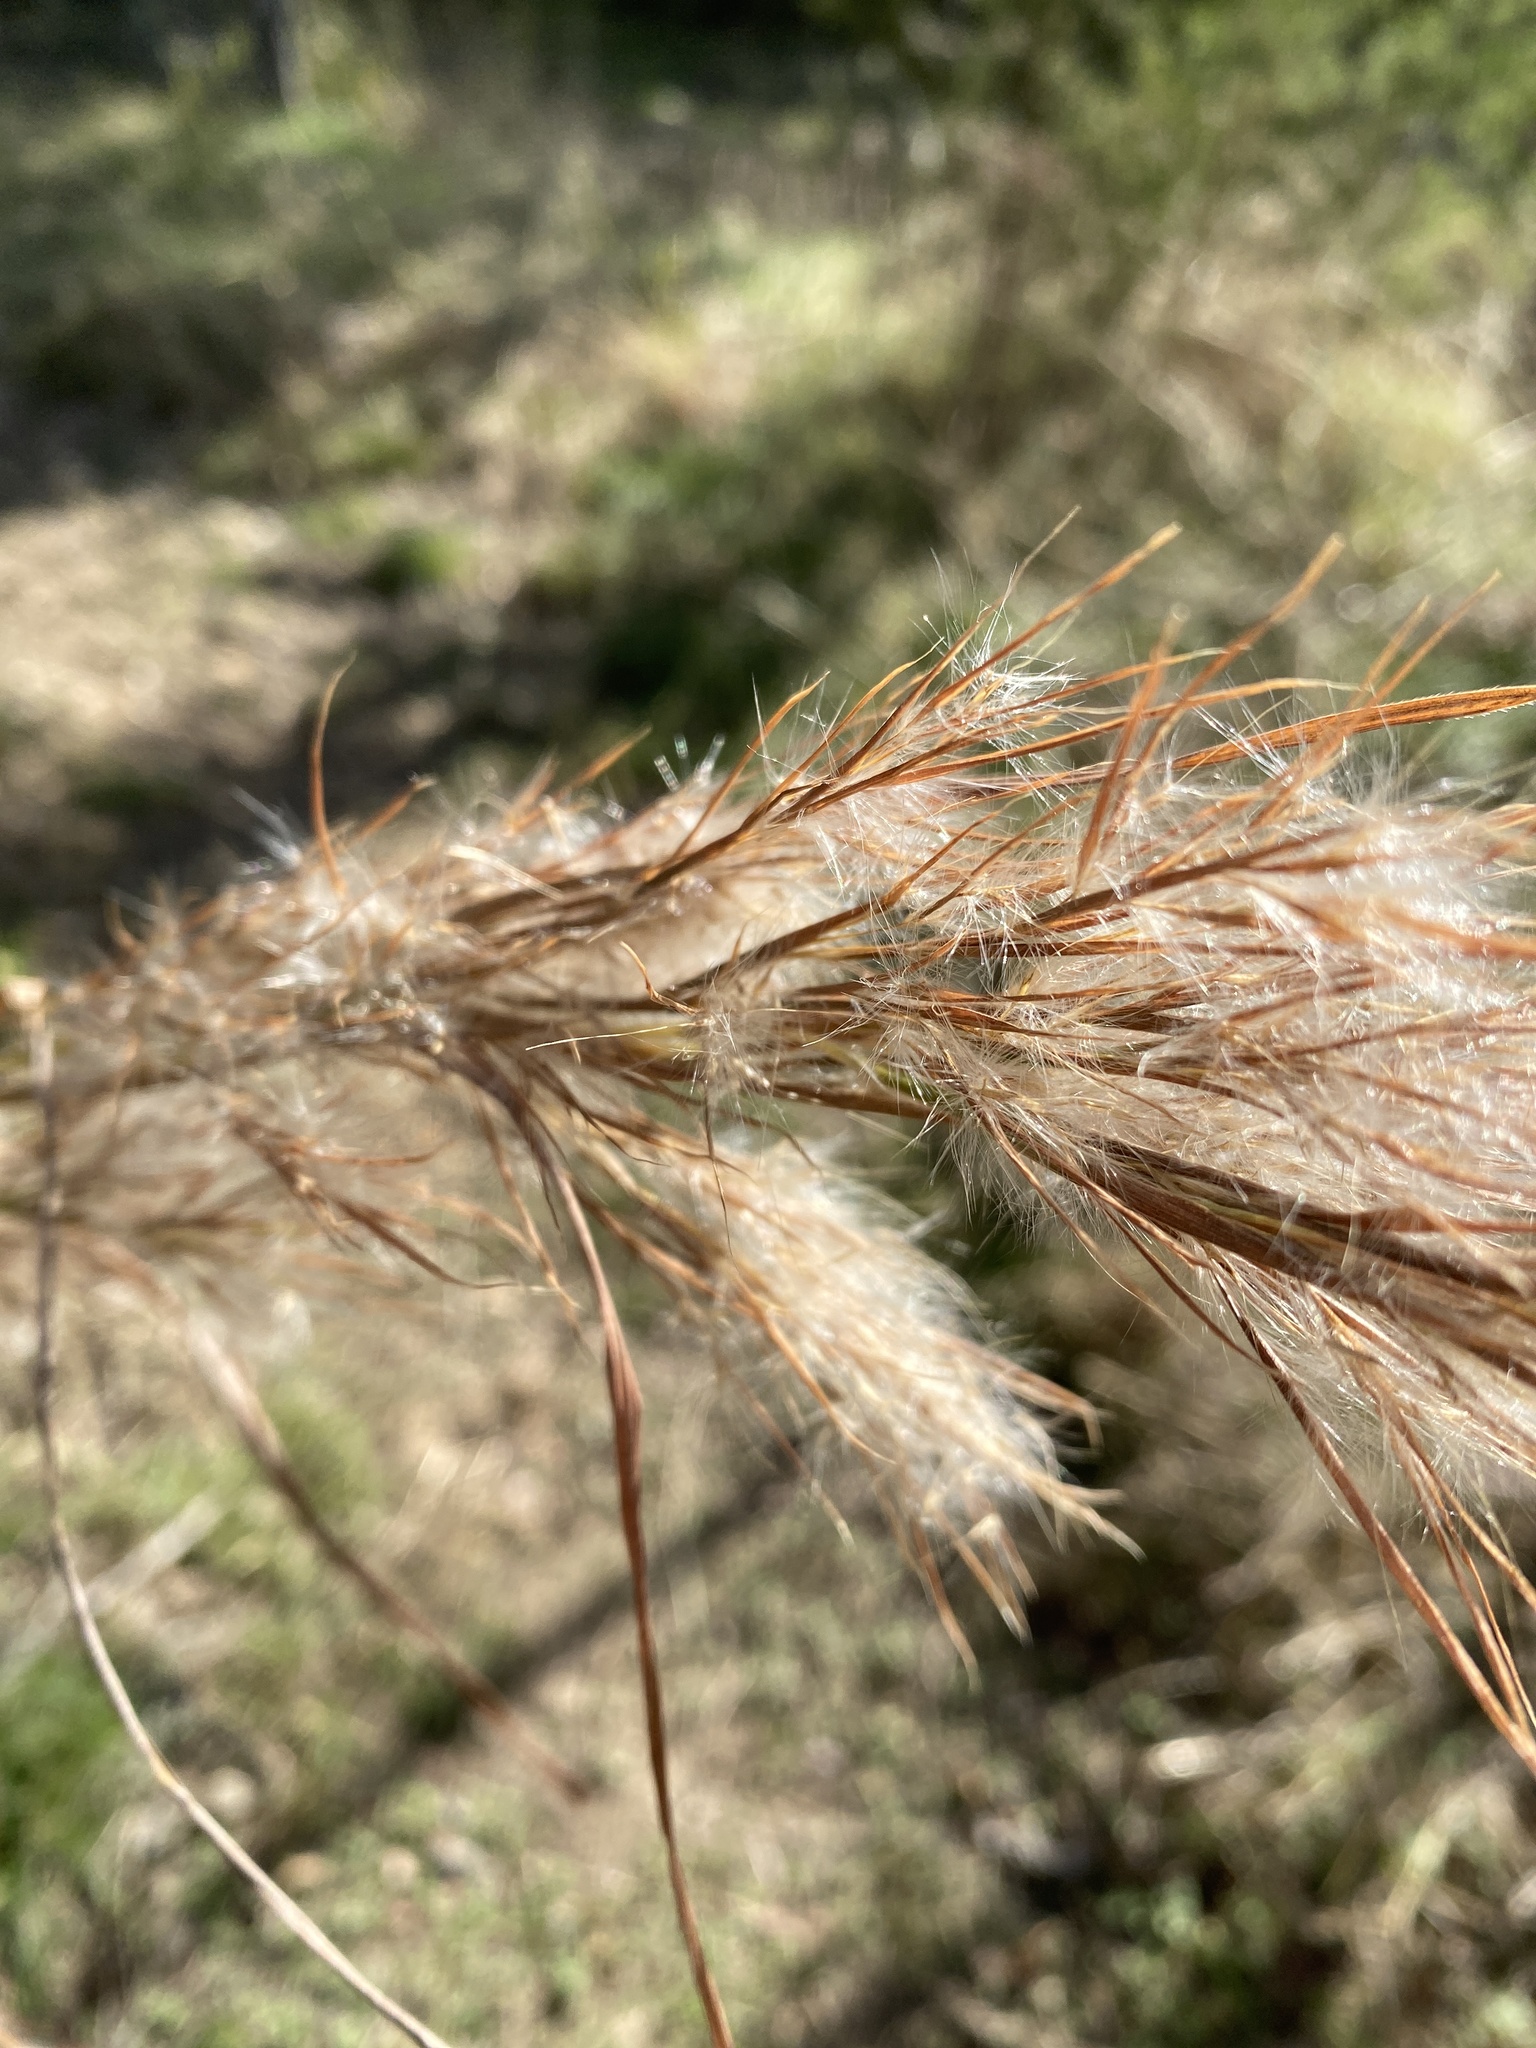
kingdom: Plantae
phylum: Tracheophyta
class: Liliopsida
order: Poales
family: Poaceae
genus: Andropogon
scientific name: Andropogon tenuispatheus
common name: Bushy bluestem
